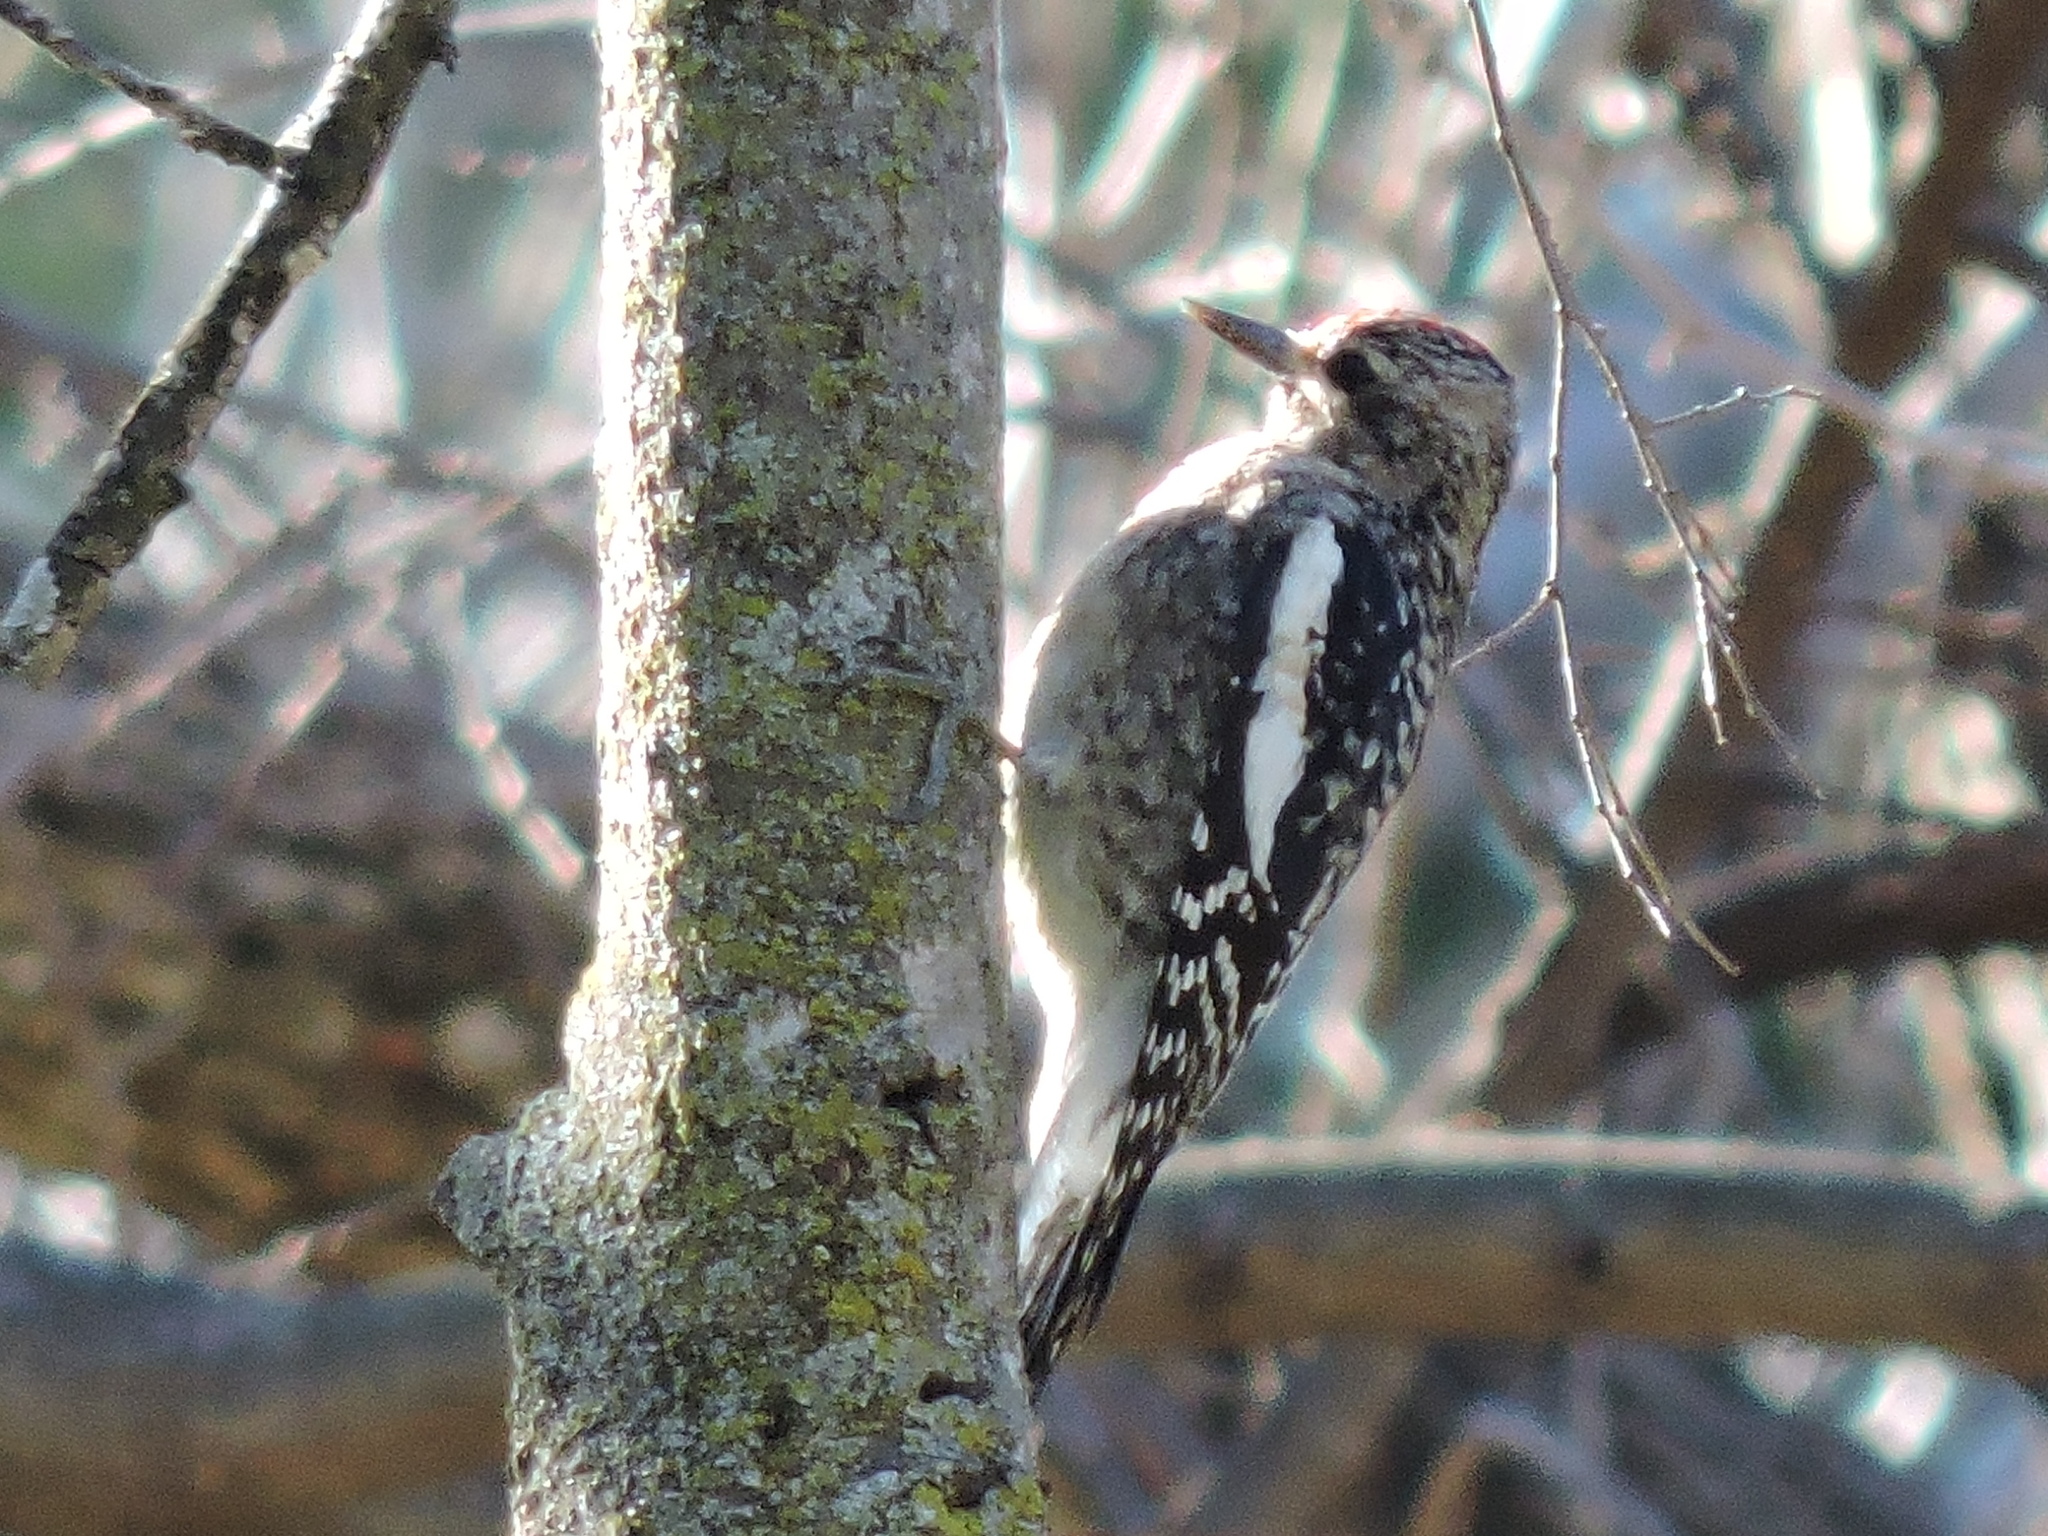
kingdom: Animalia
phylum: Chordata
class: Aves
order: Piciformes
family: Picidae
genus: Sphyrapicus
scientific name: Sphyrapicus varius
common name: Yellow-bellied sapsucker
